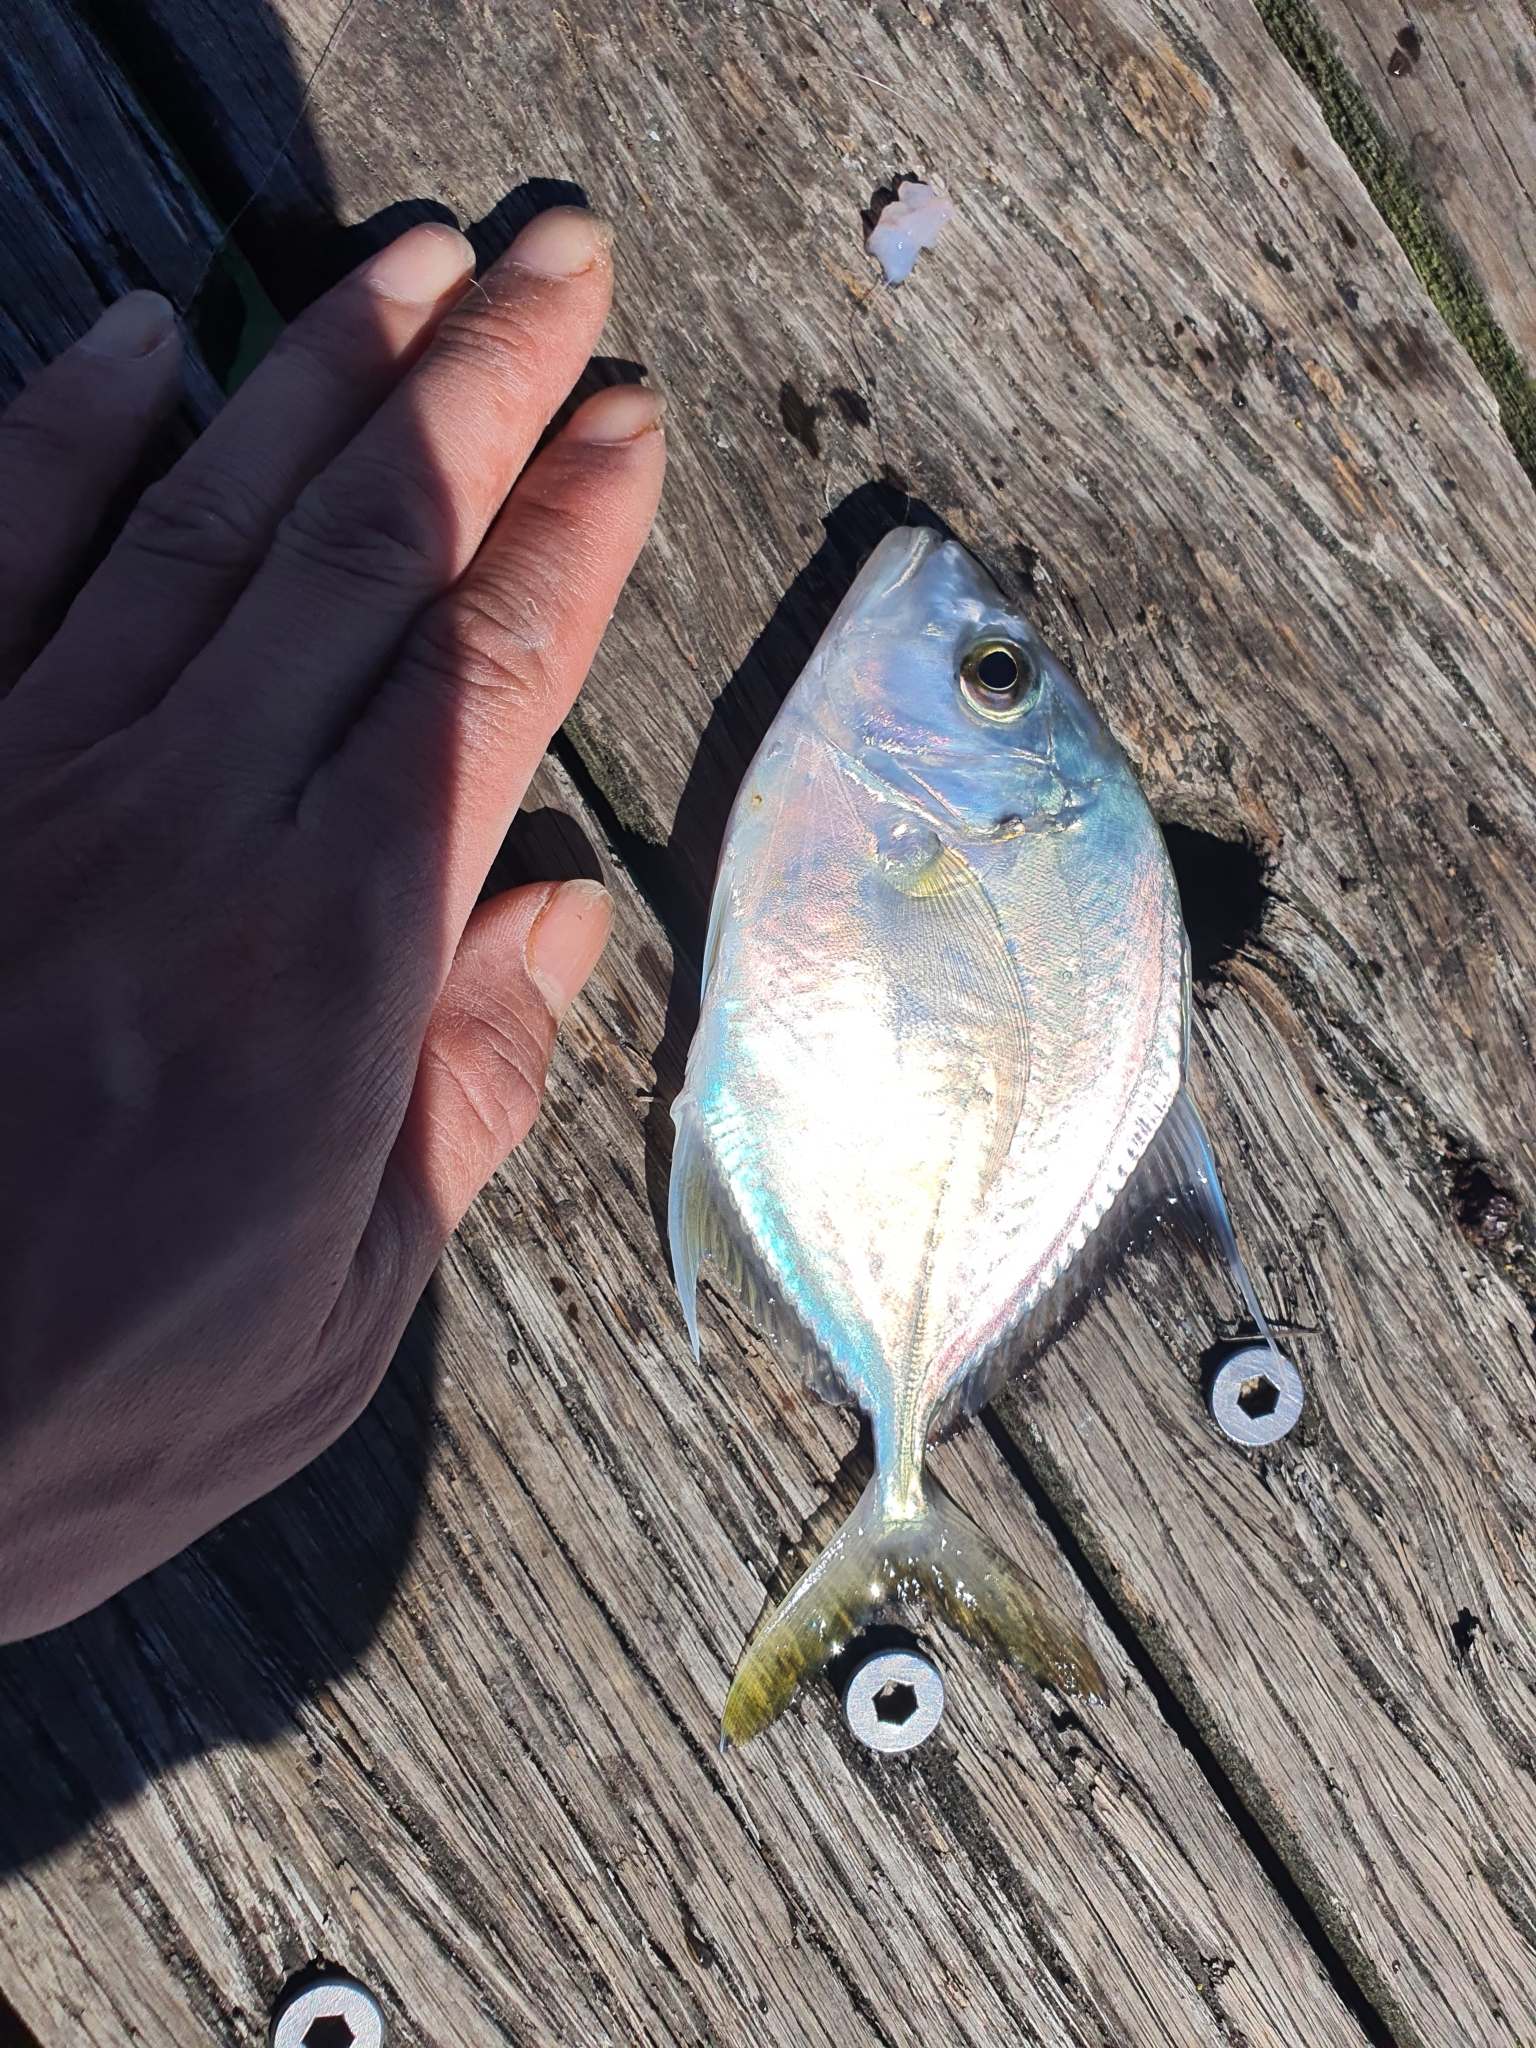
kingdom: Animalia
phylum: Chordata
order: Perciformes
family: Carangidae
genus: Platycaranx
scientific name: Platycaranx chrysophrys
